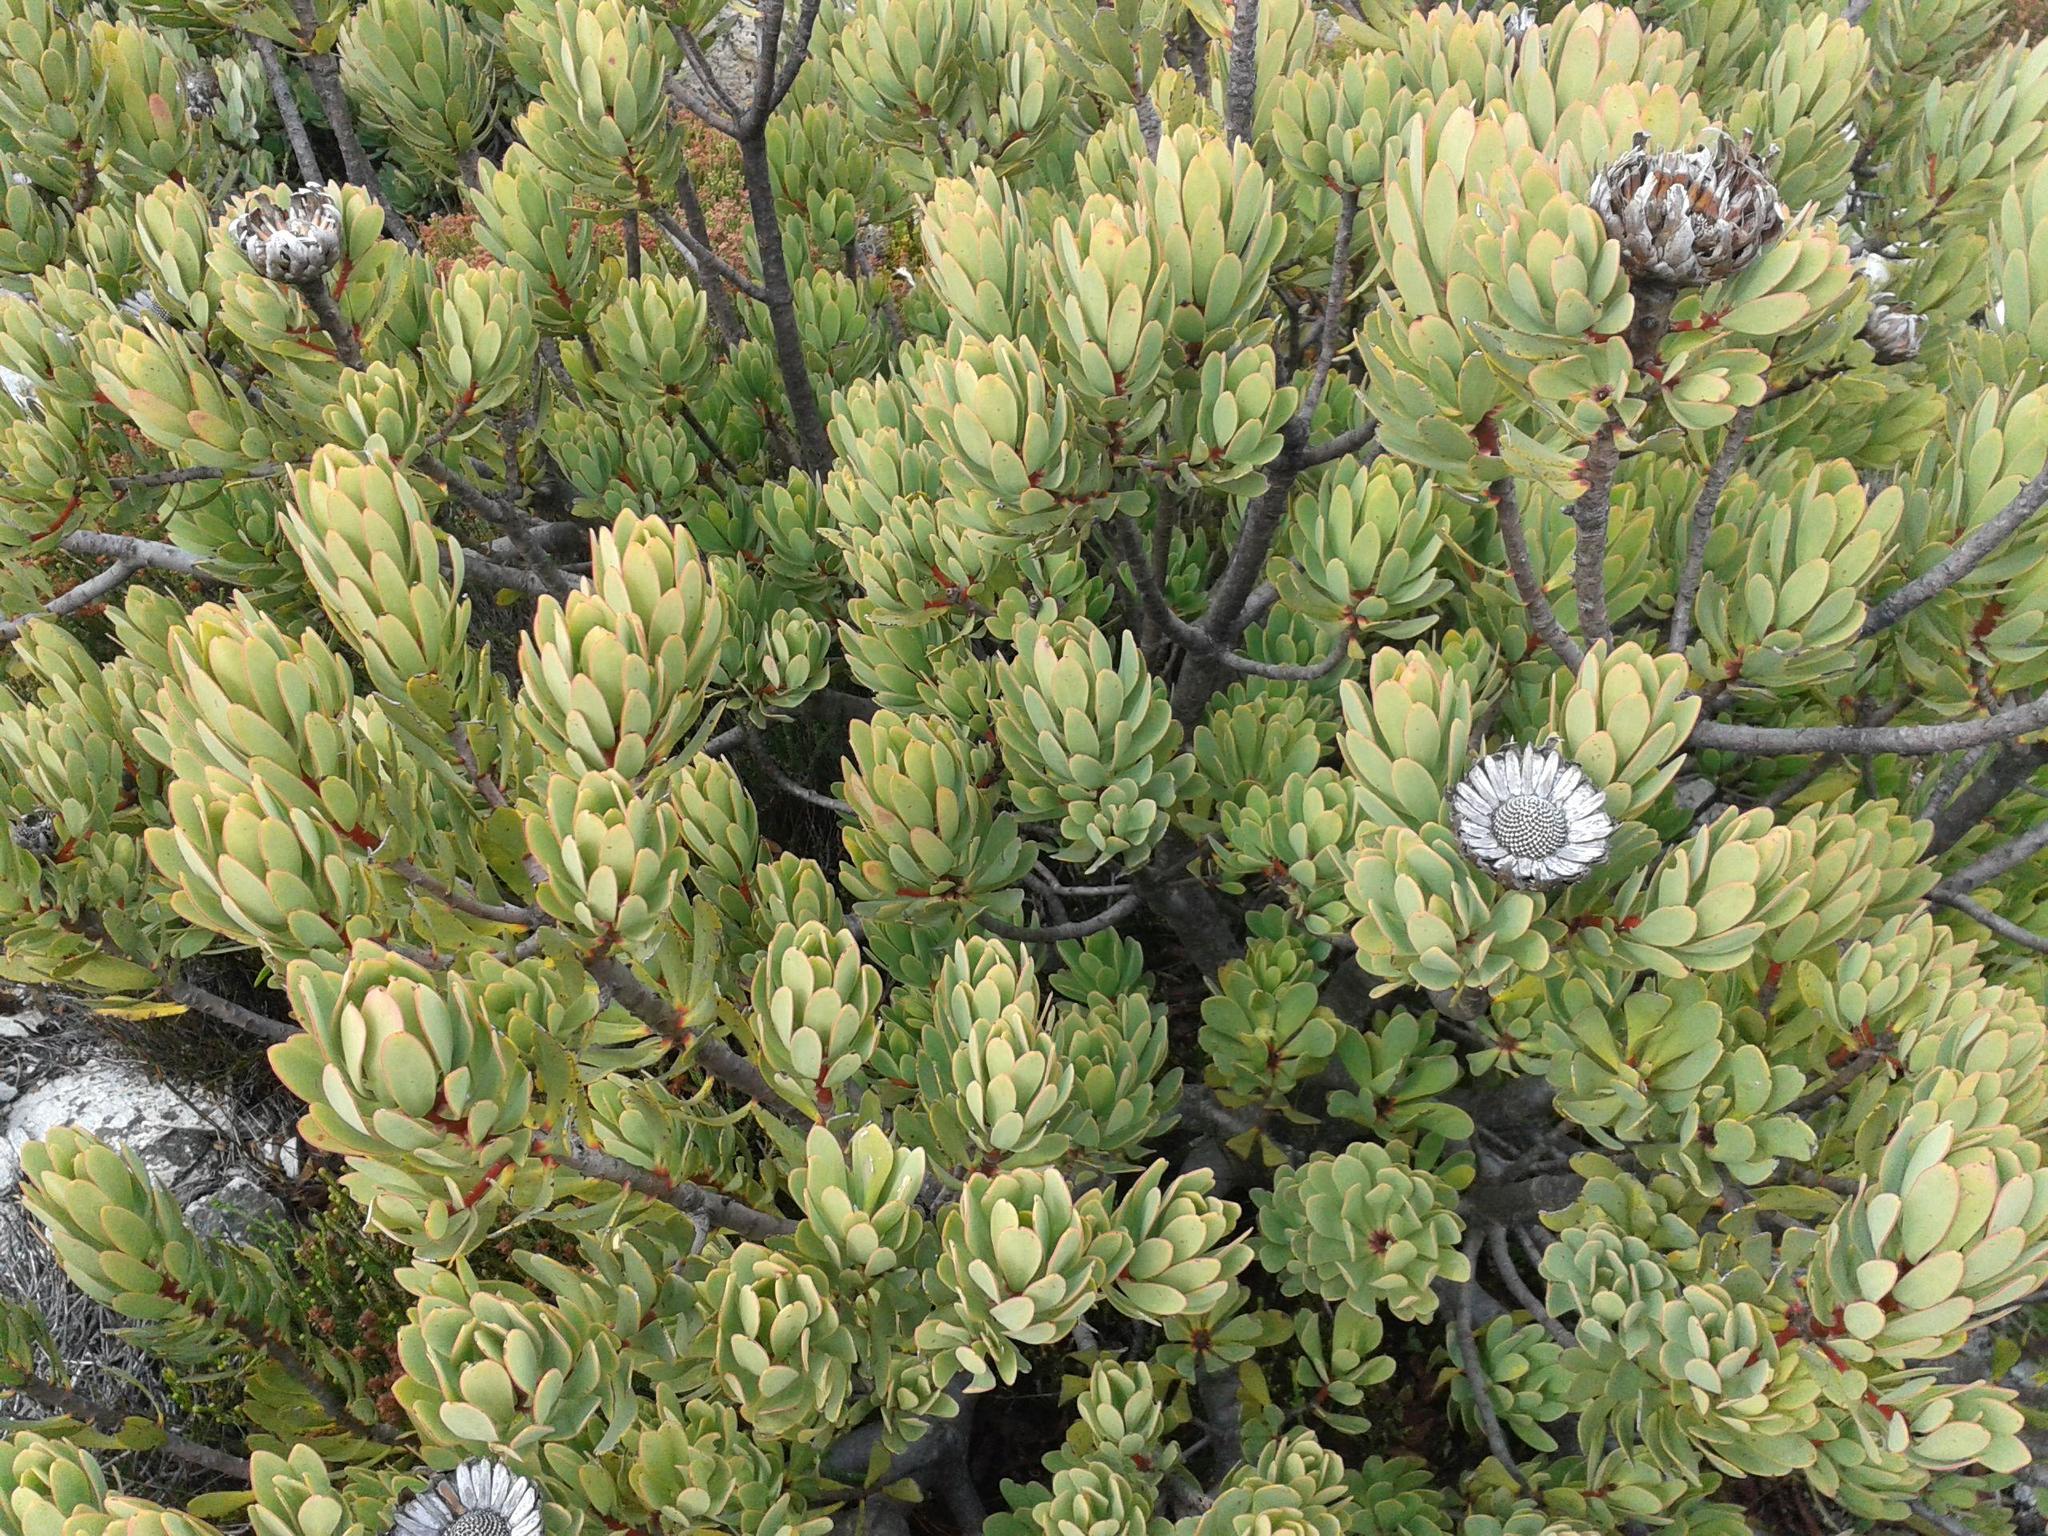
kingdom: Plantae
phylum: Tracheophyta
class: Magnoliopsida
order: Proteales
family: Proteaceae
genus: Protea
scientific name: Protea venusta
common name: Cascade sugarbush
